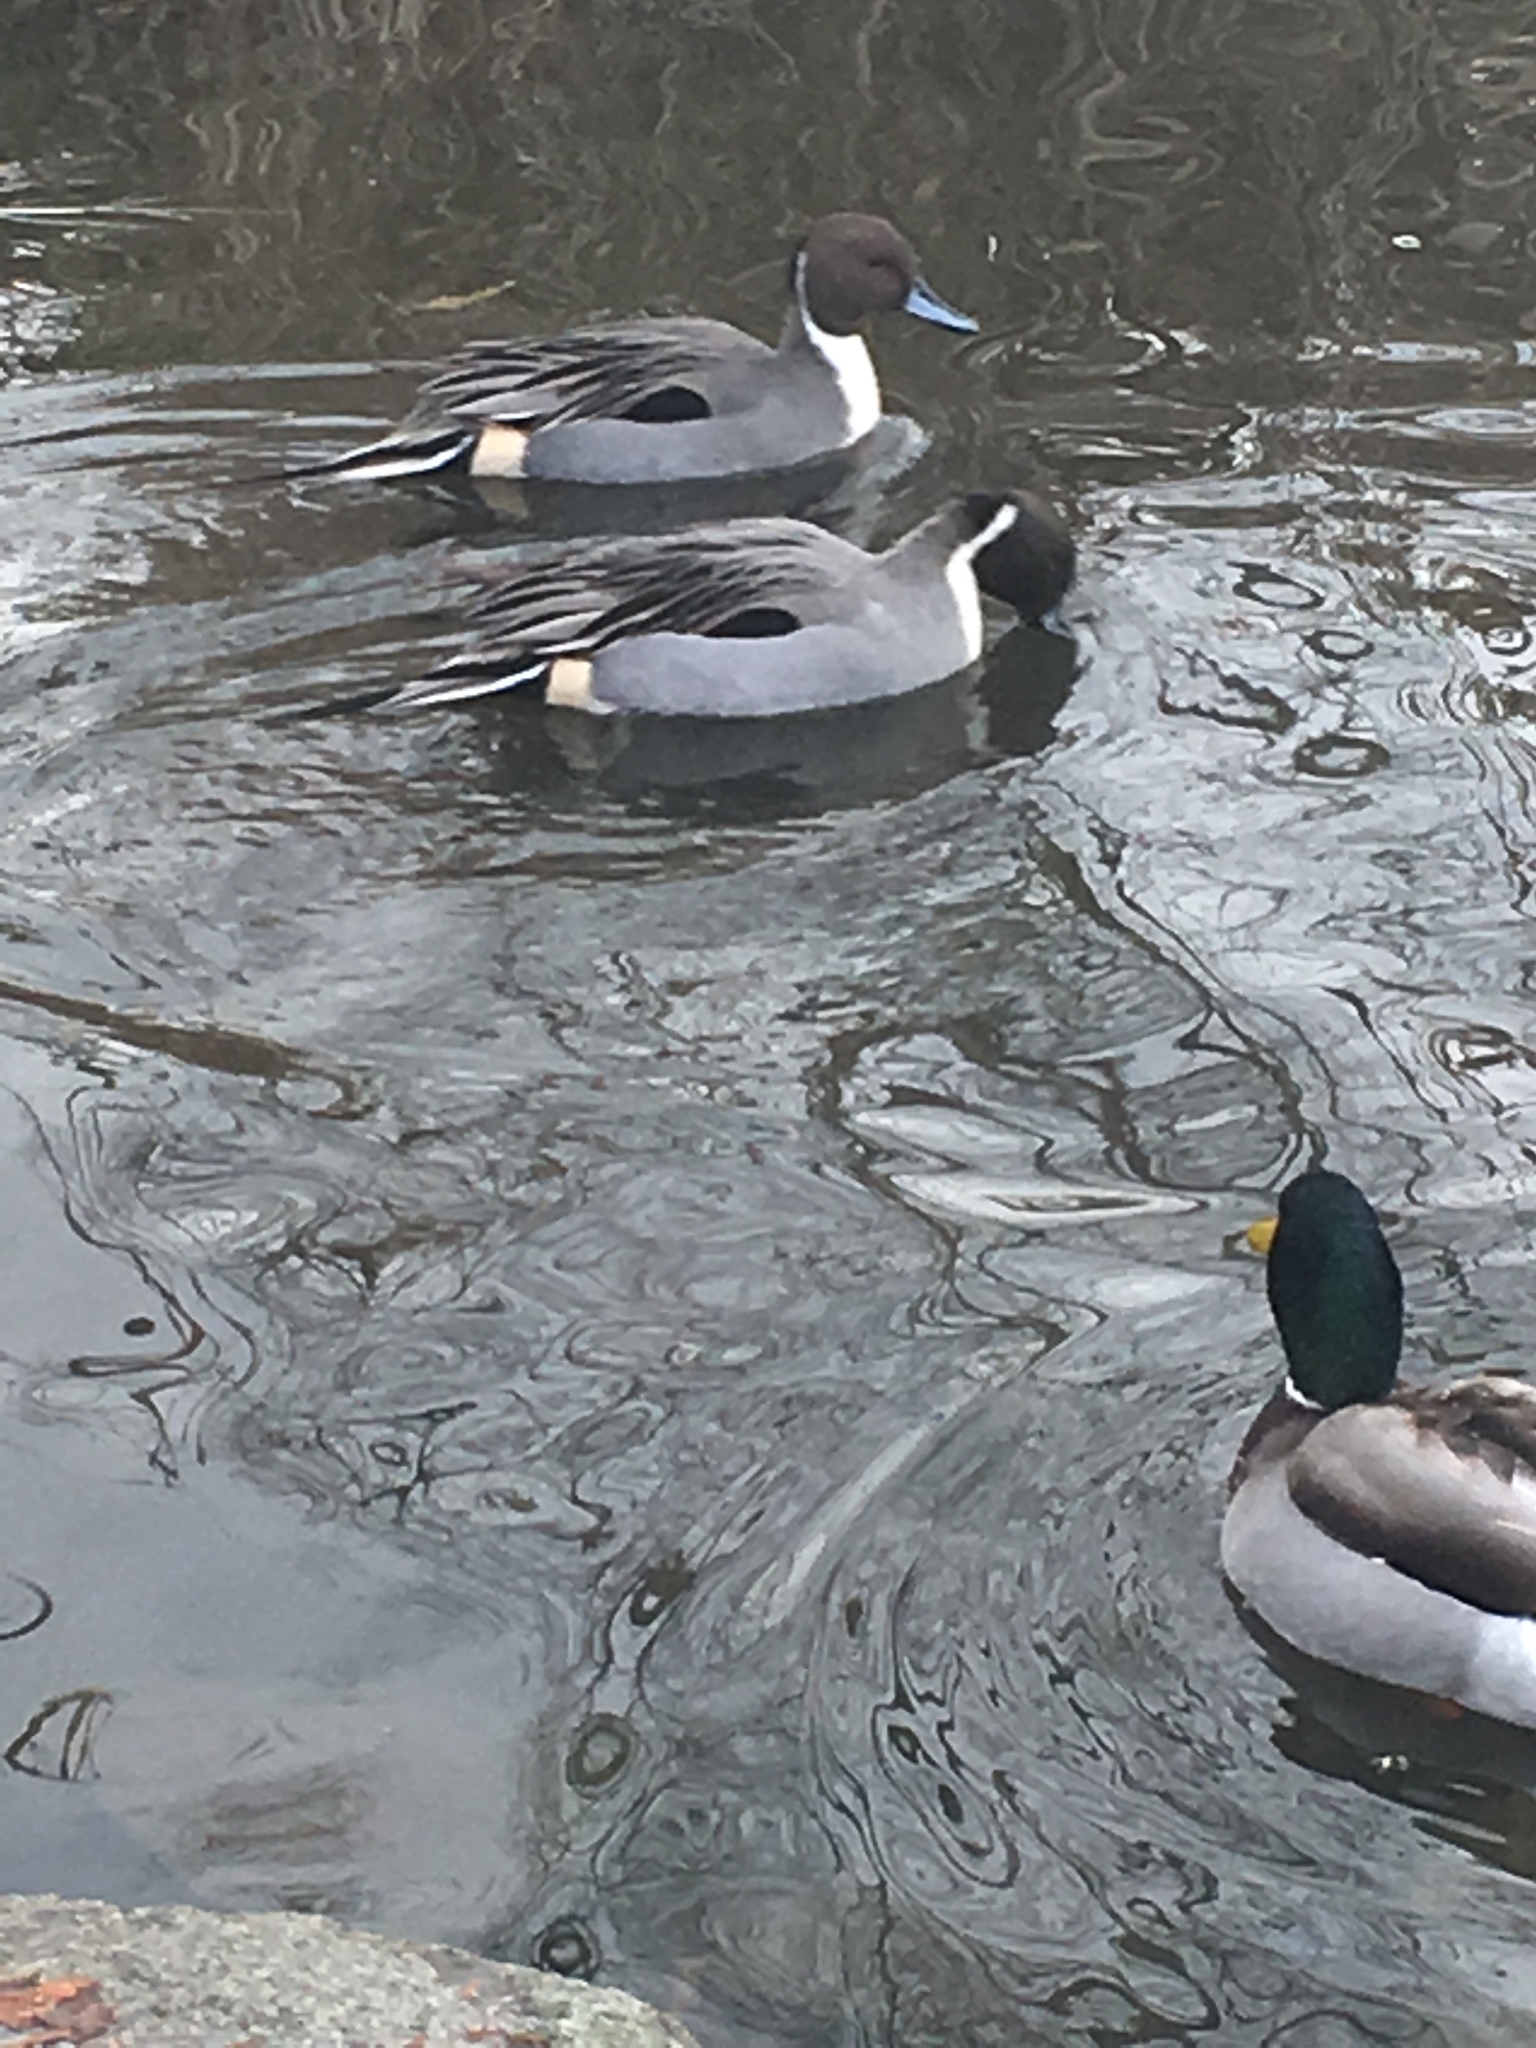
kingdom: Animalia
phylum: Chordata
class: Aves
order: Anseriformes
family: Anatidae
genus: Anas
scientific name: Anas acuta
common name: Northern pintail
